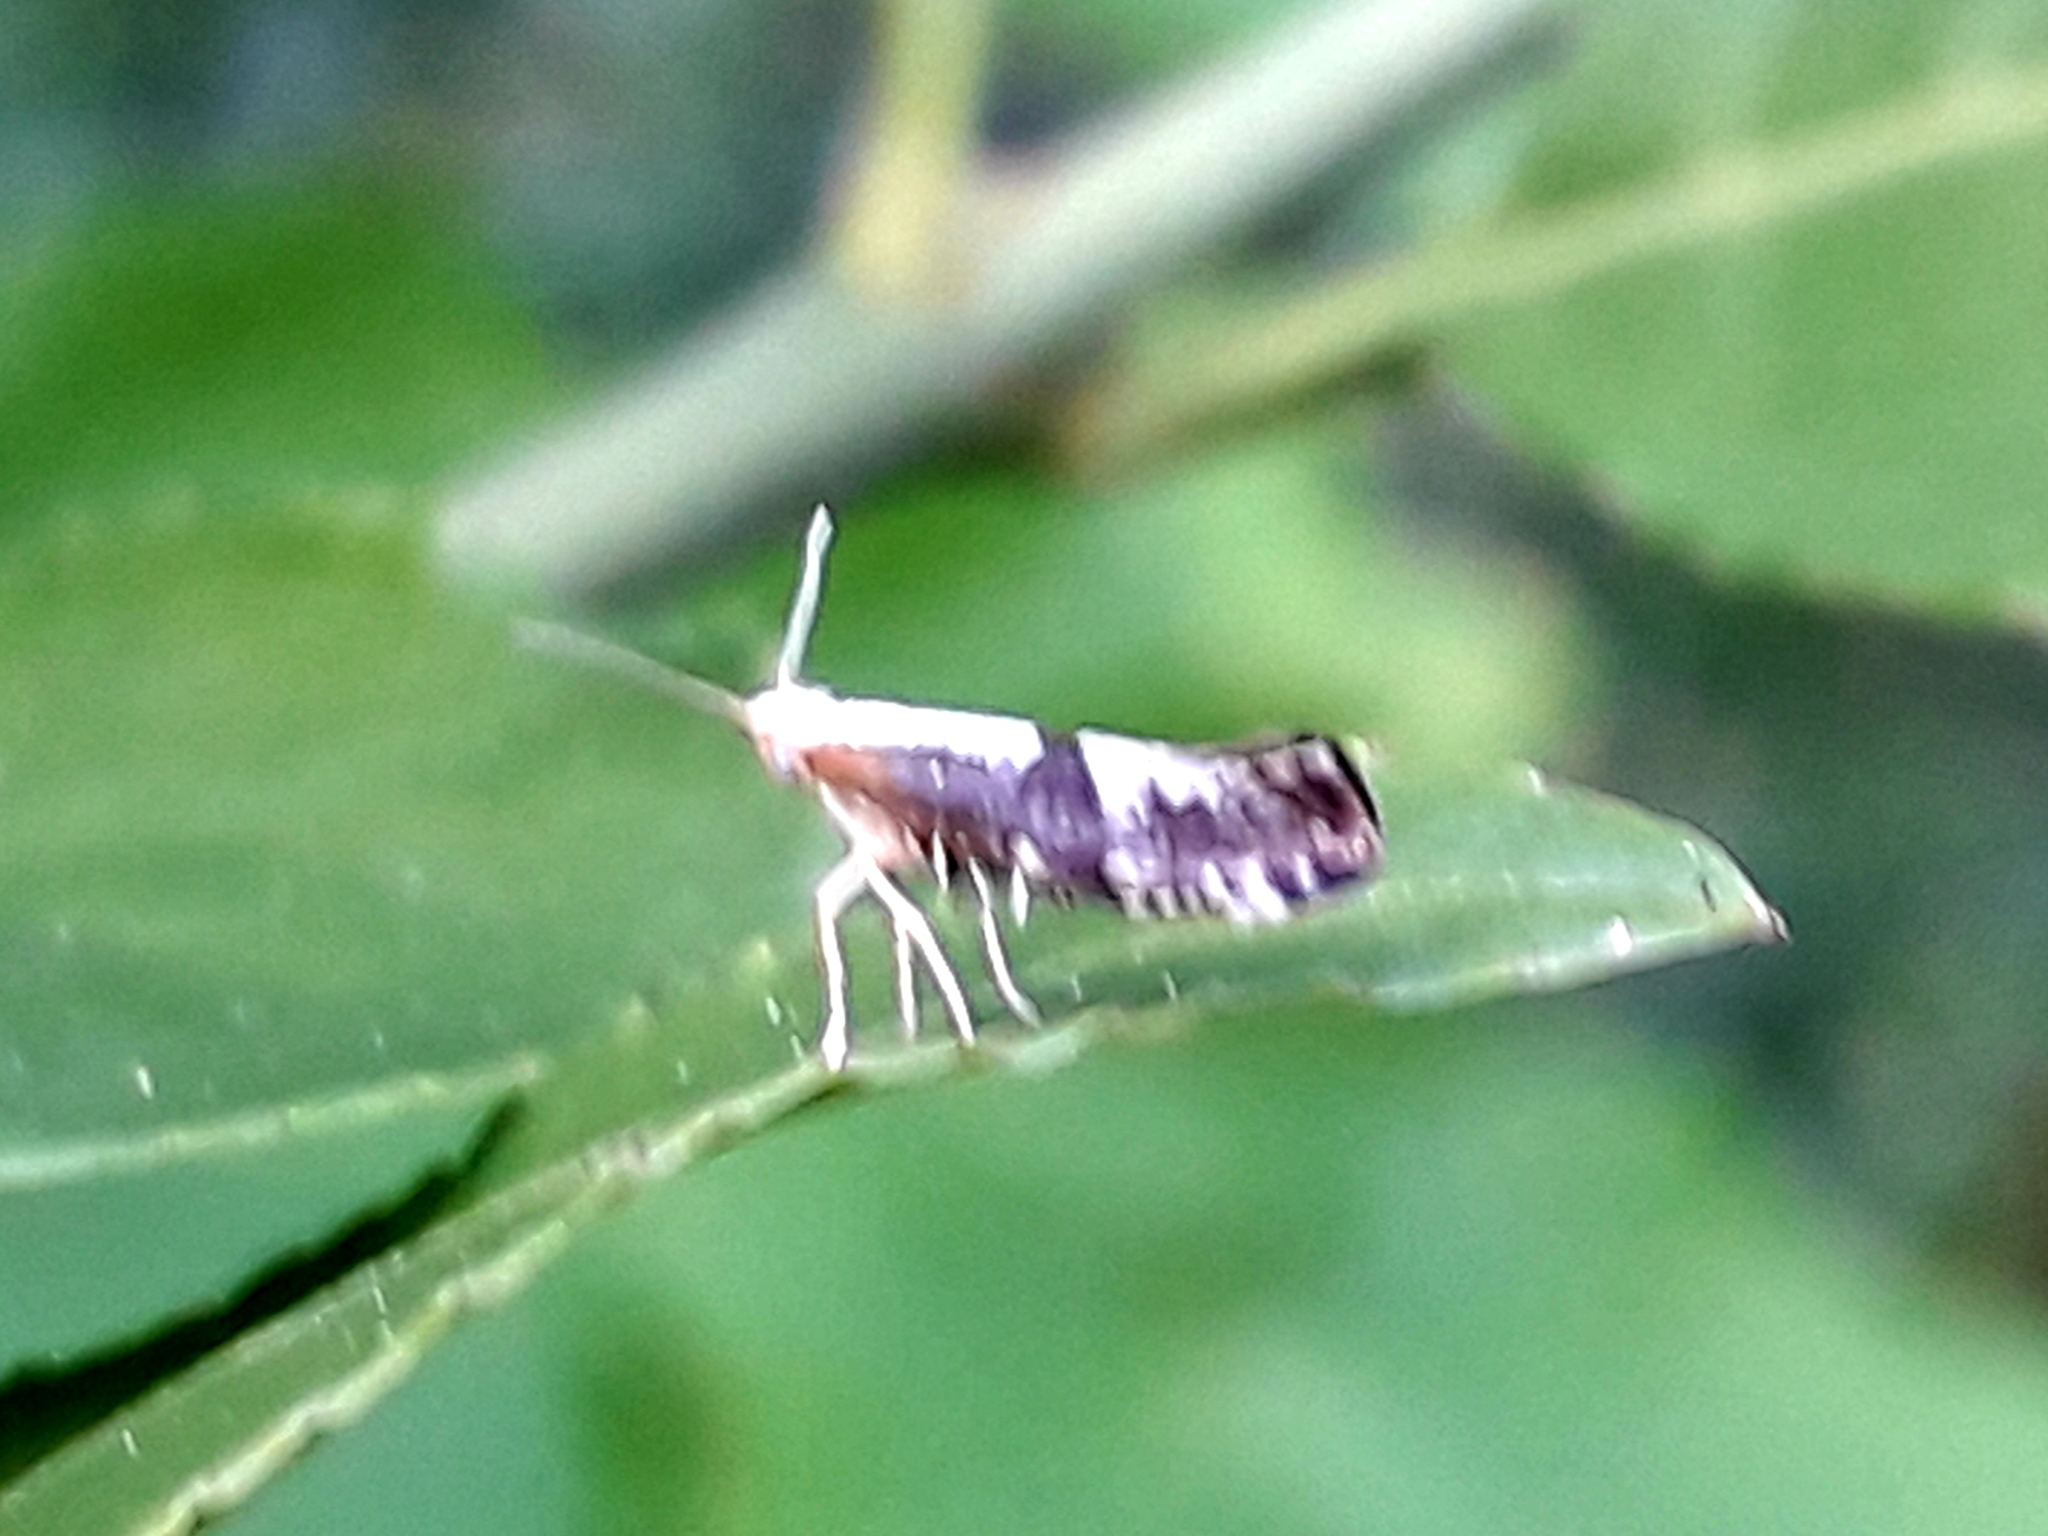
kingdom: Animalia
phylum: Arthropoda
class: Insecta
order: Lepidoptera
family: Argyresthiidae
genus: Argyresthia
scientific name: Argyresthia spinosella
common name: Blackthorn argent
